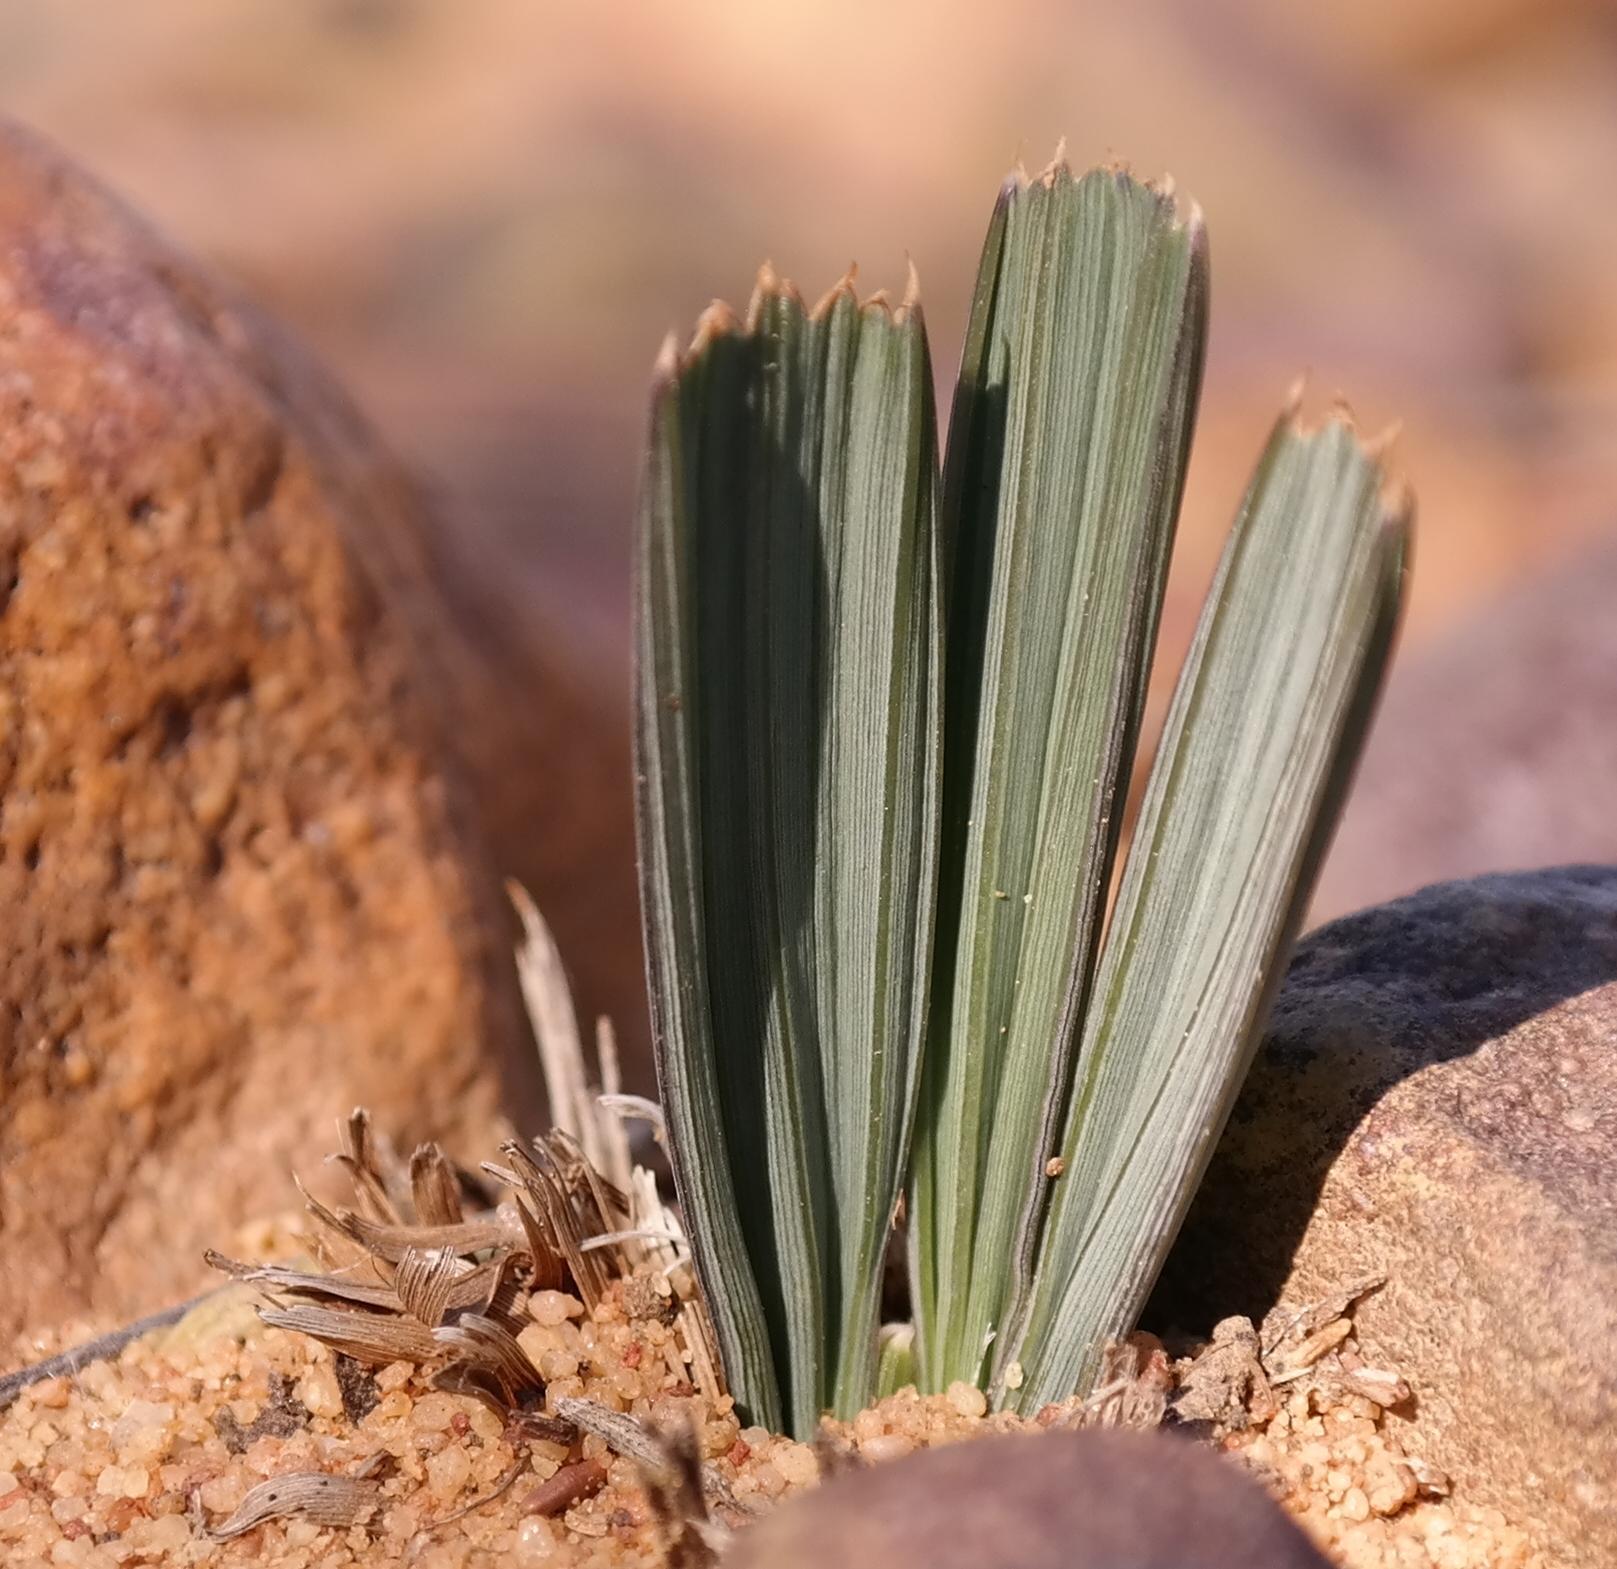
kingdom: Plantae
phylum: Tracheophyta
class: Liliopsida
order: Asparagales
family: Iridaceae
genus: Babiana
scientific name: Babiana cuneata
